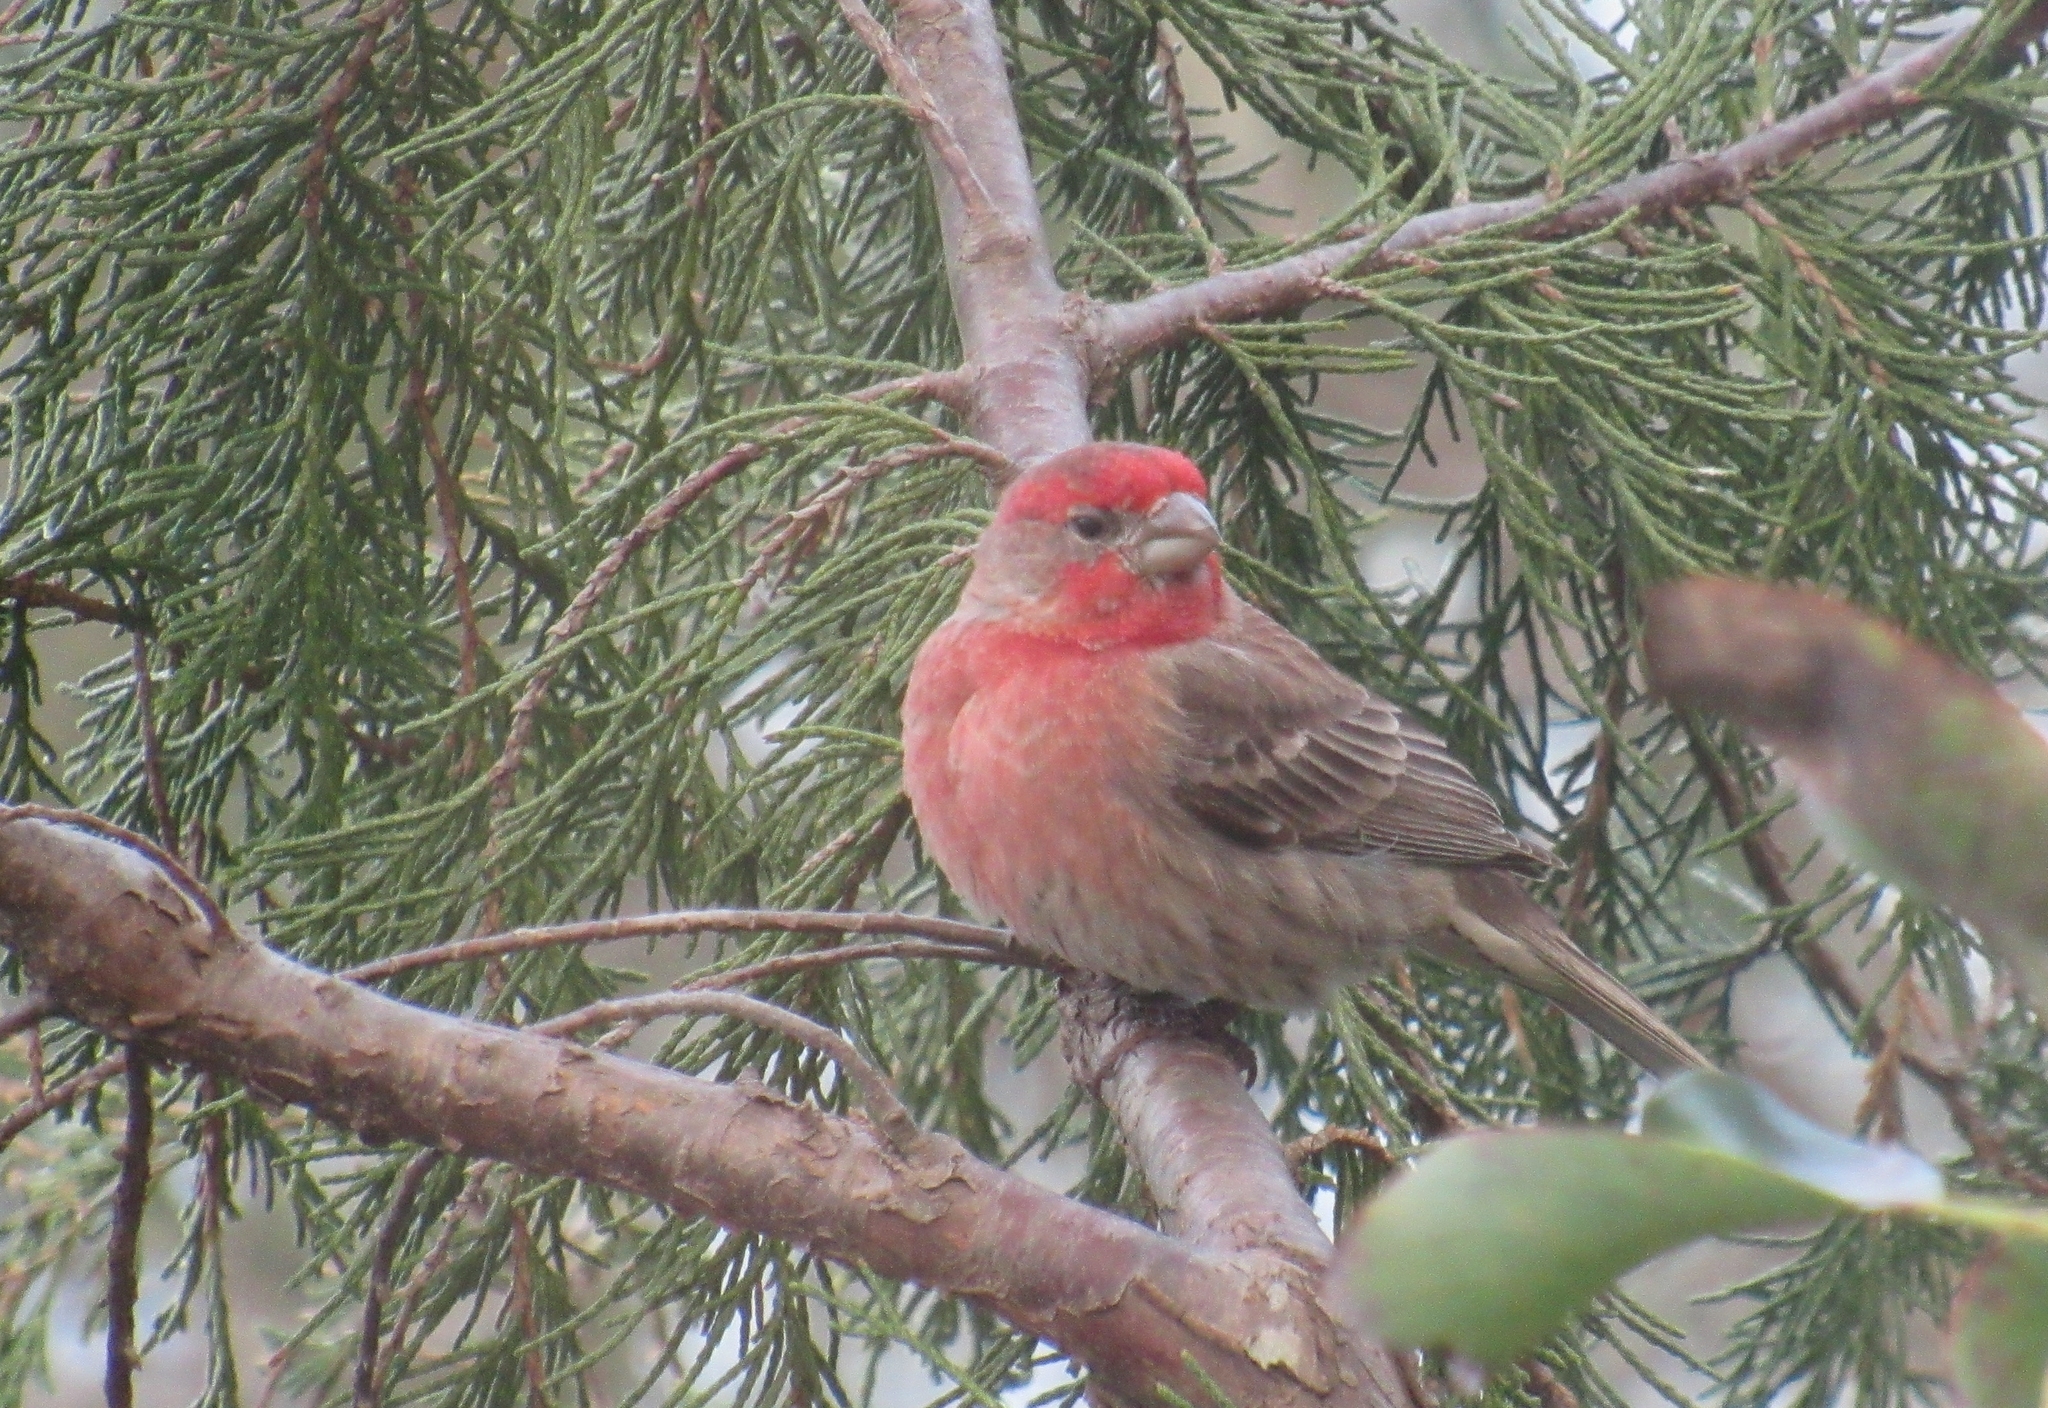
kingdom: Animalia
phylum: Chordata
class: Aves
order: Passeriformes
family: Fringillidae
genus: Haemorhous
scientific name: Haemorhous mexicanus
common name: House finch
